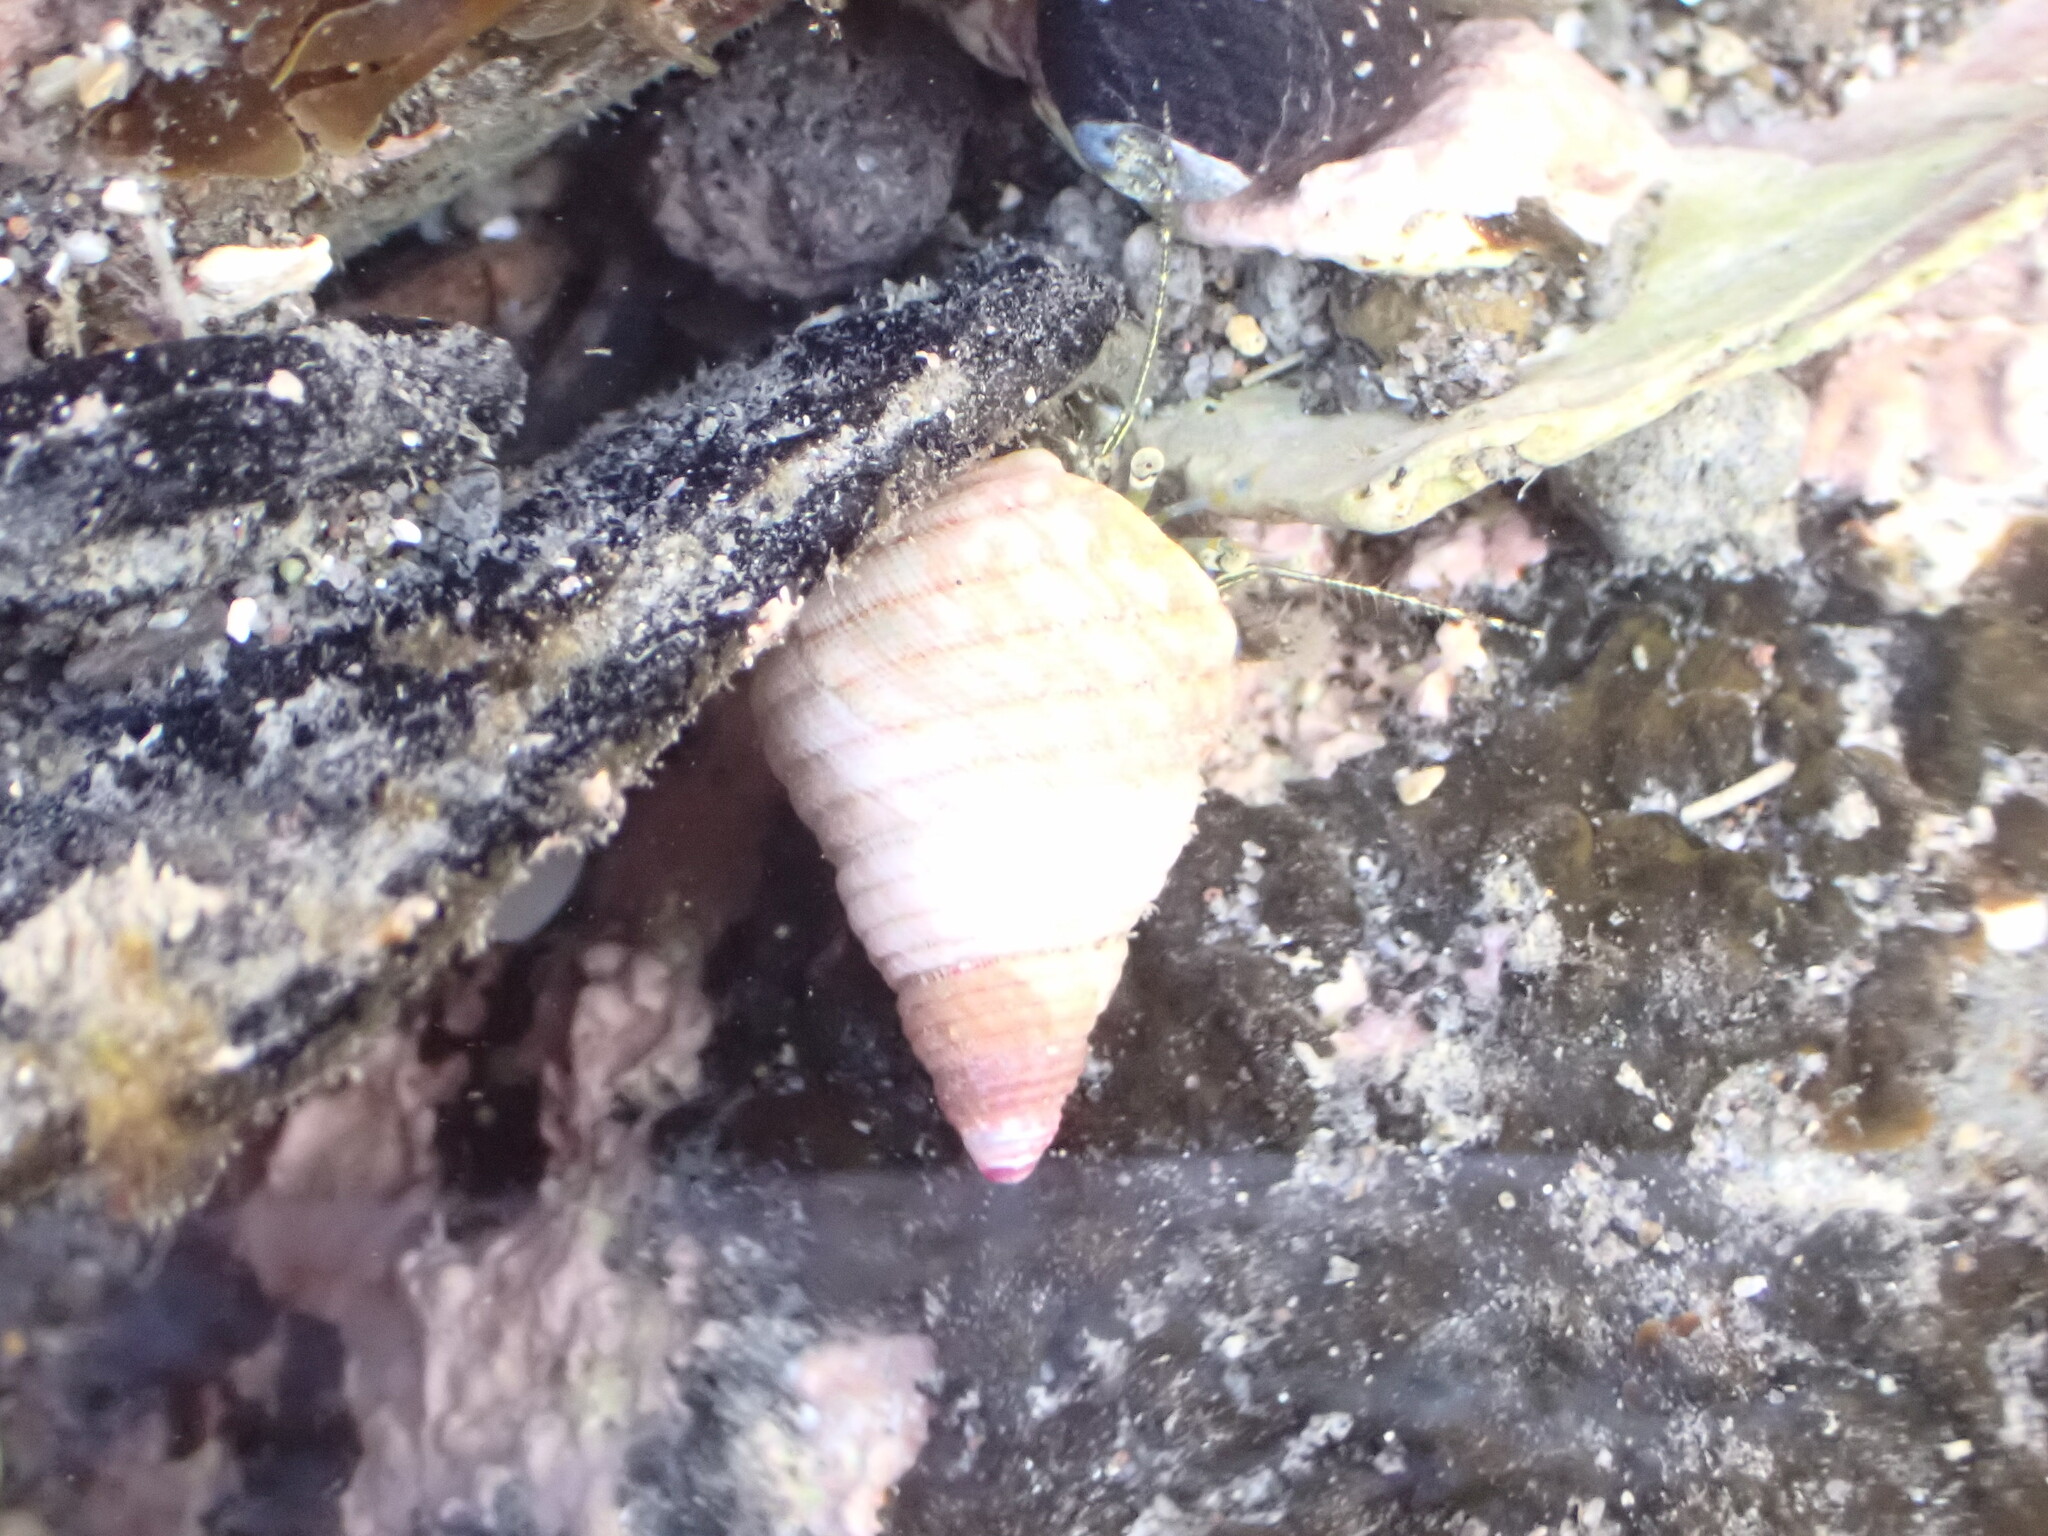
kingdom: Animalia
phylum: Arthropoda
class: Malacostraca
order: Decapoda
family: Paguridae
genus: Pagurus
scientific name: Pagurus novizealandiae
